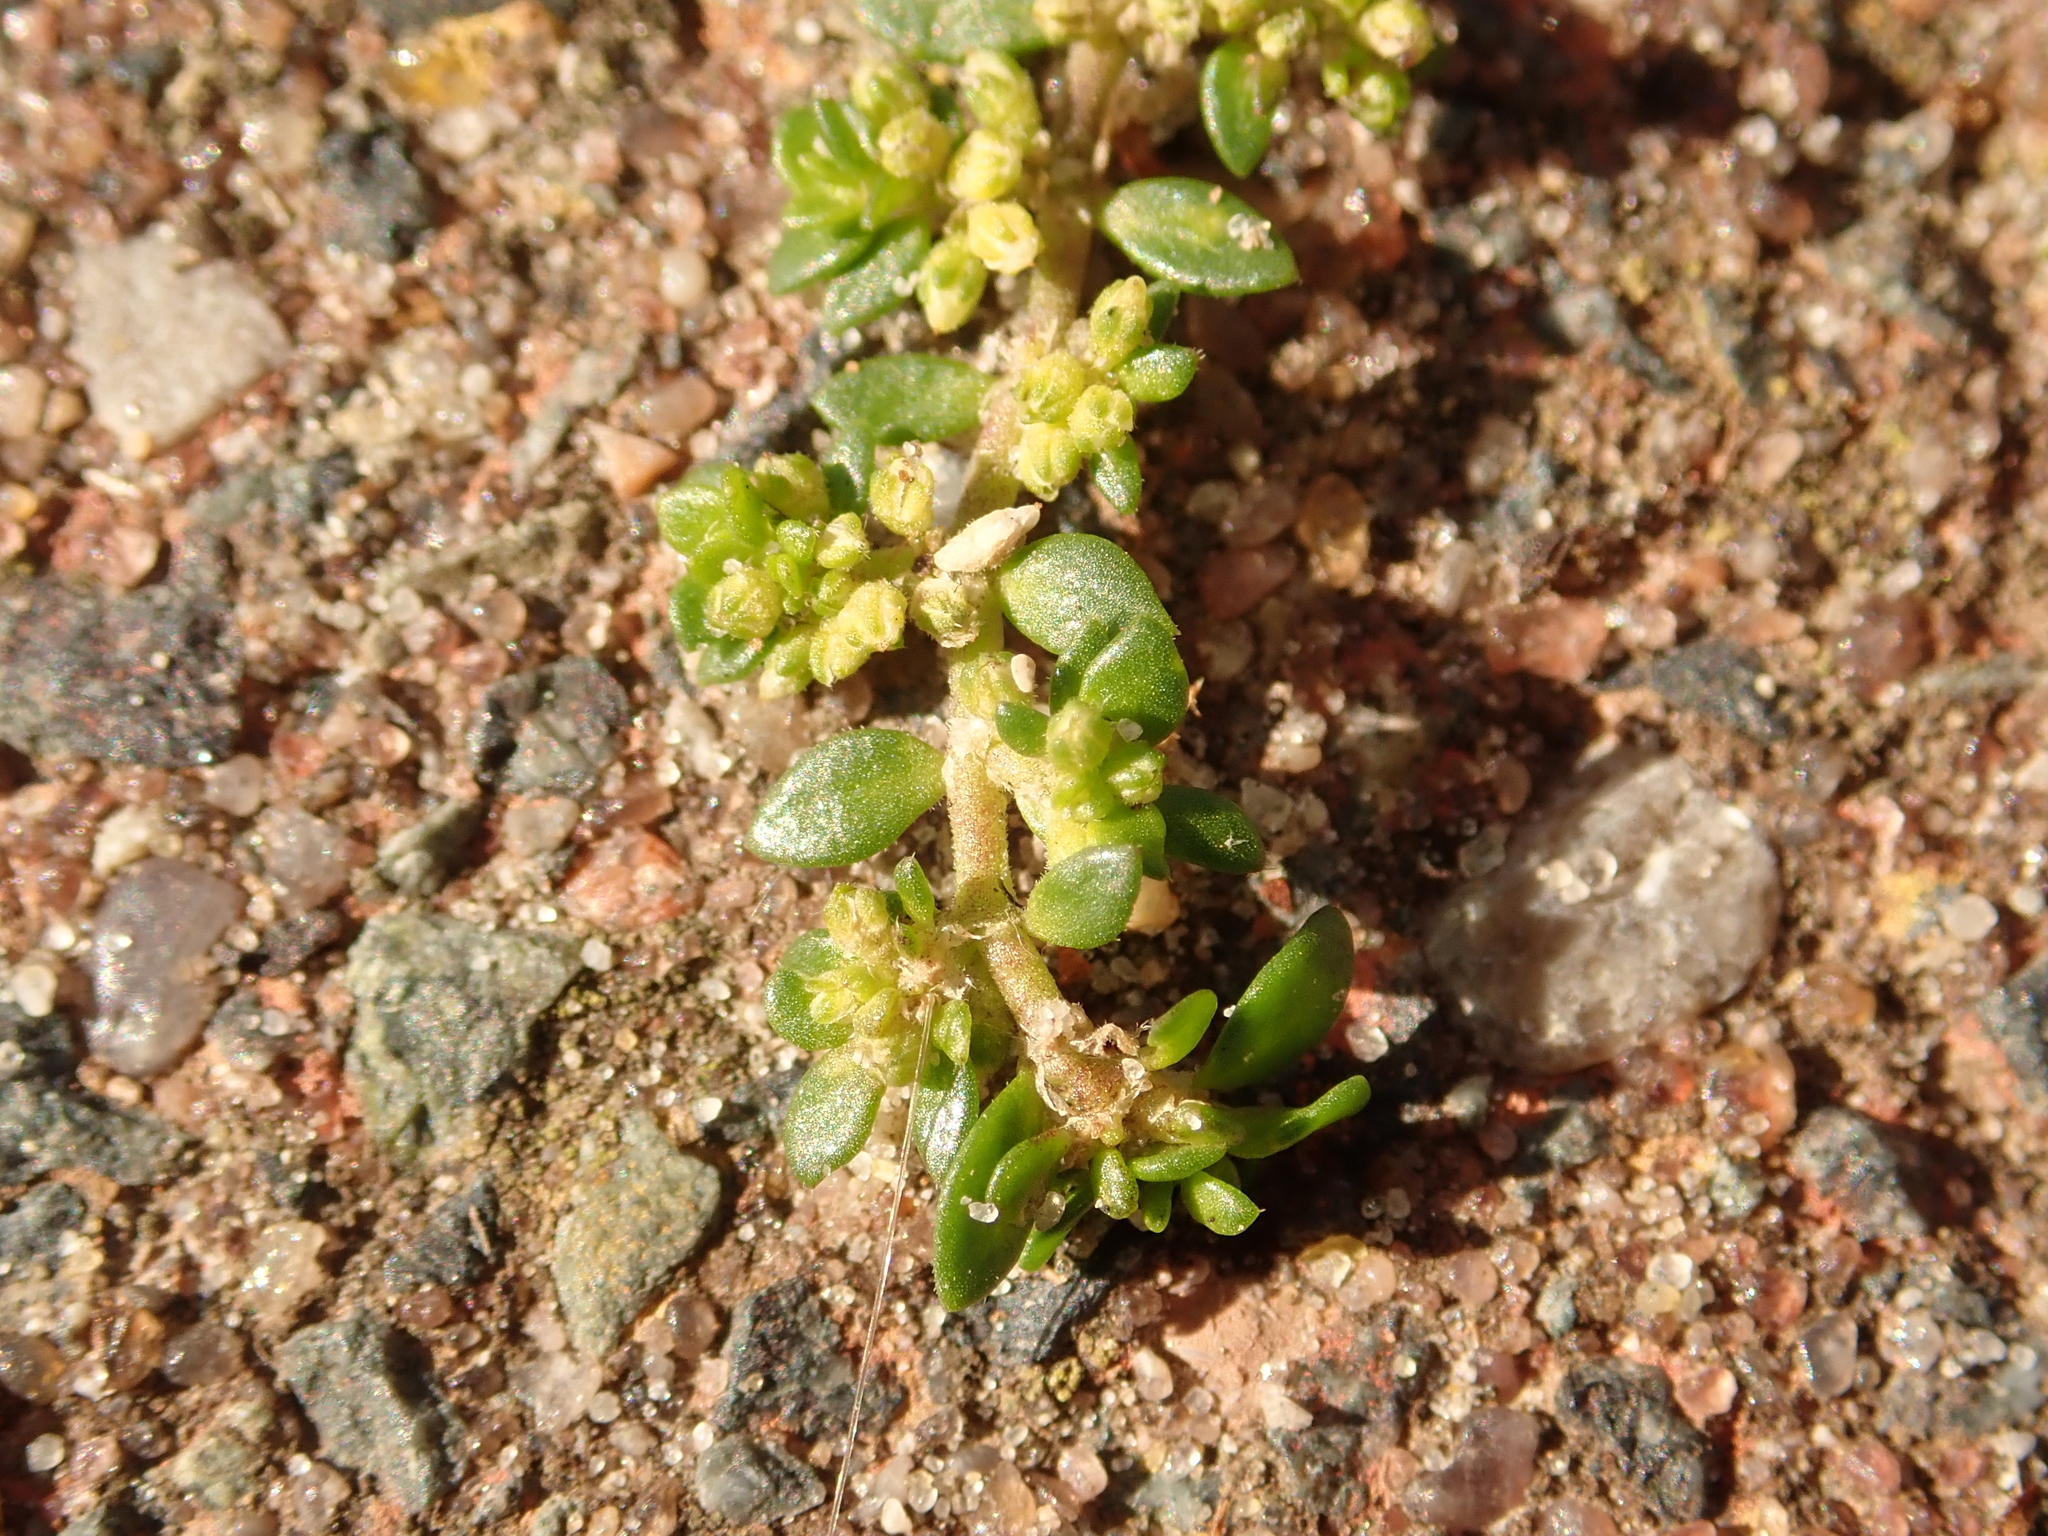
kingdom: Plantae
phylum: Tracheophyta
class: Magnoliopsida
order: Caryophyllales
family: Caryophyllaceae
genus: Herniaria
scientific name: Herniaria glabra
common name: Smooth rupturewort
